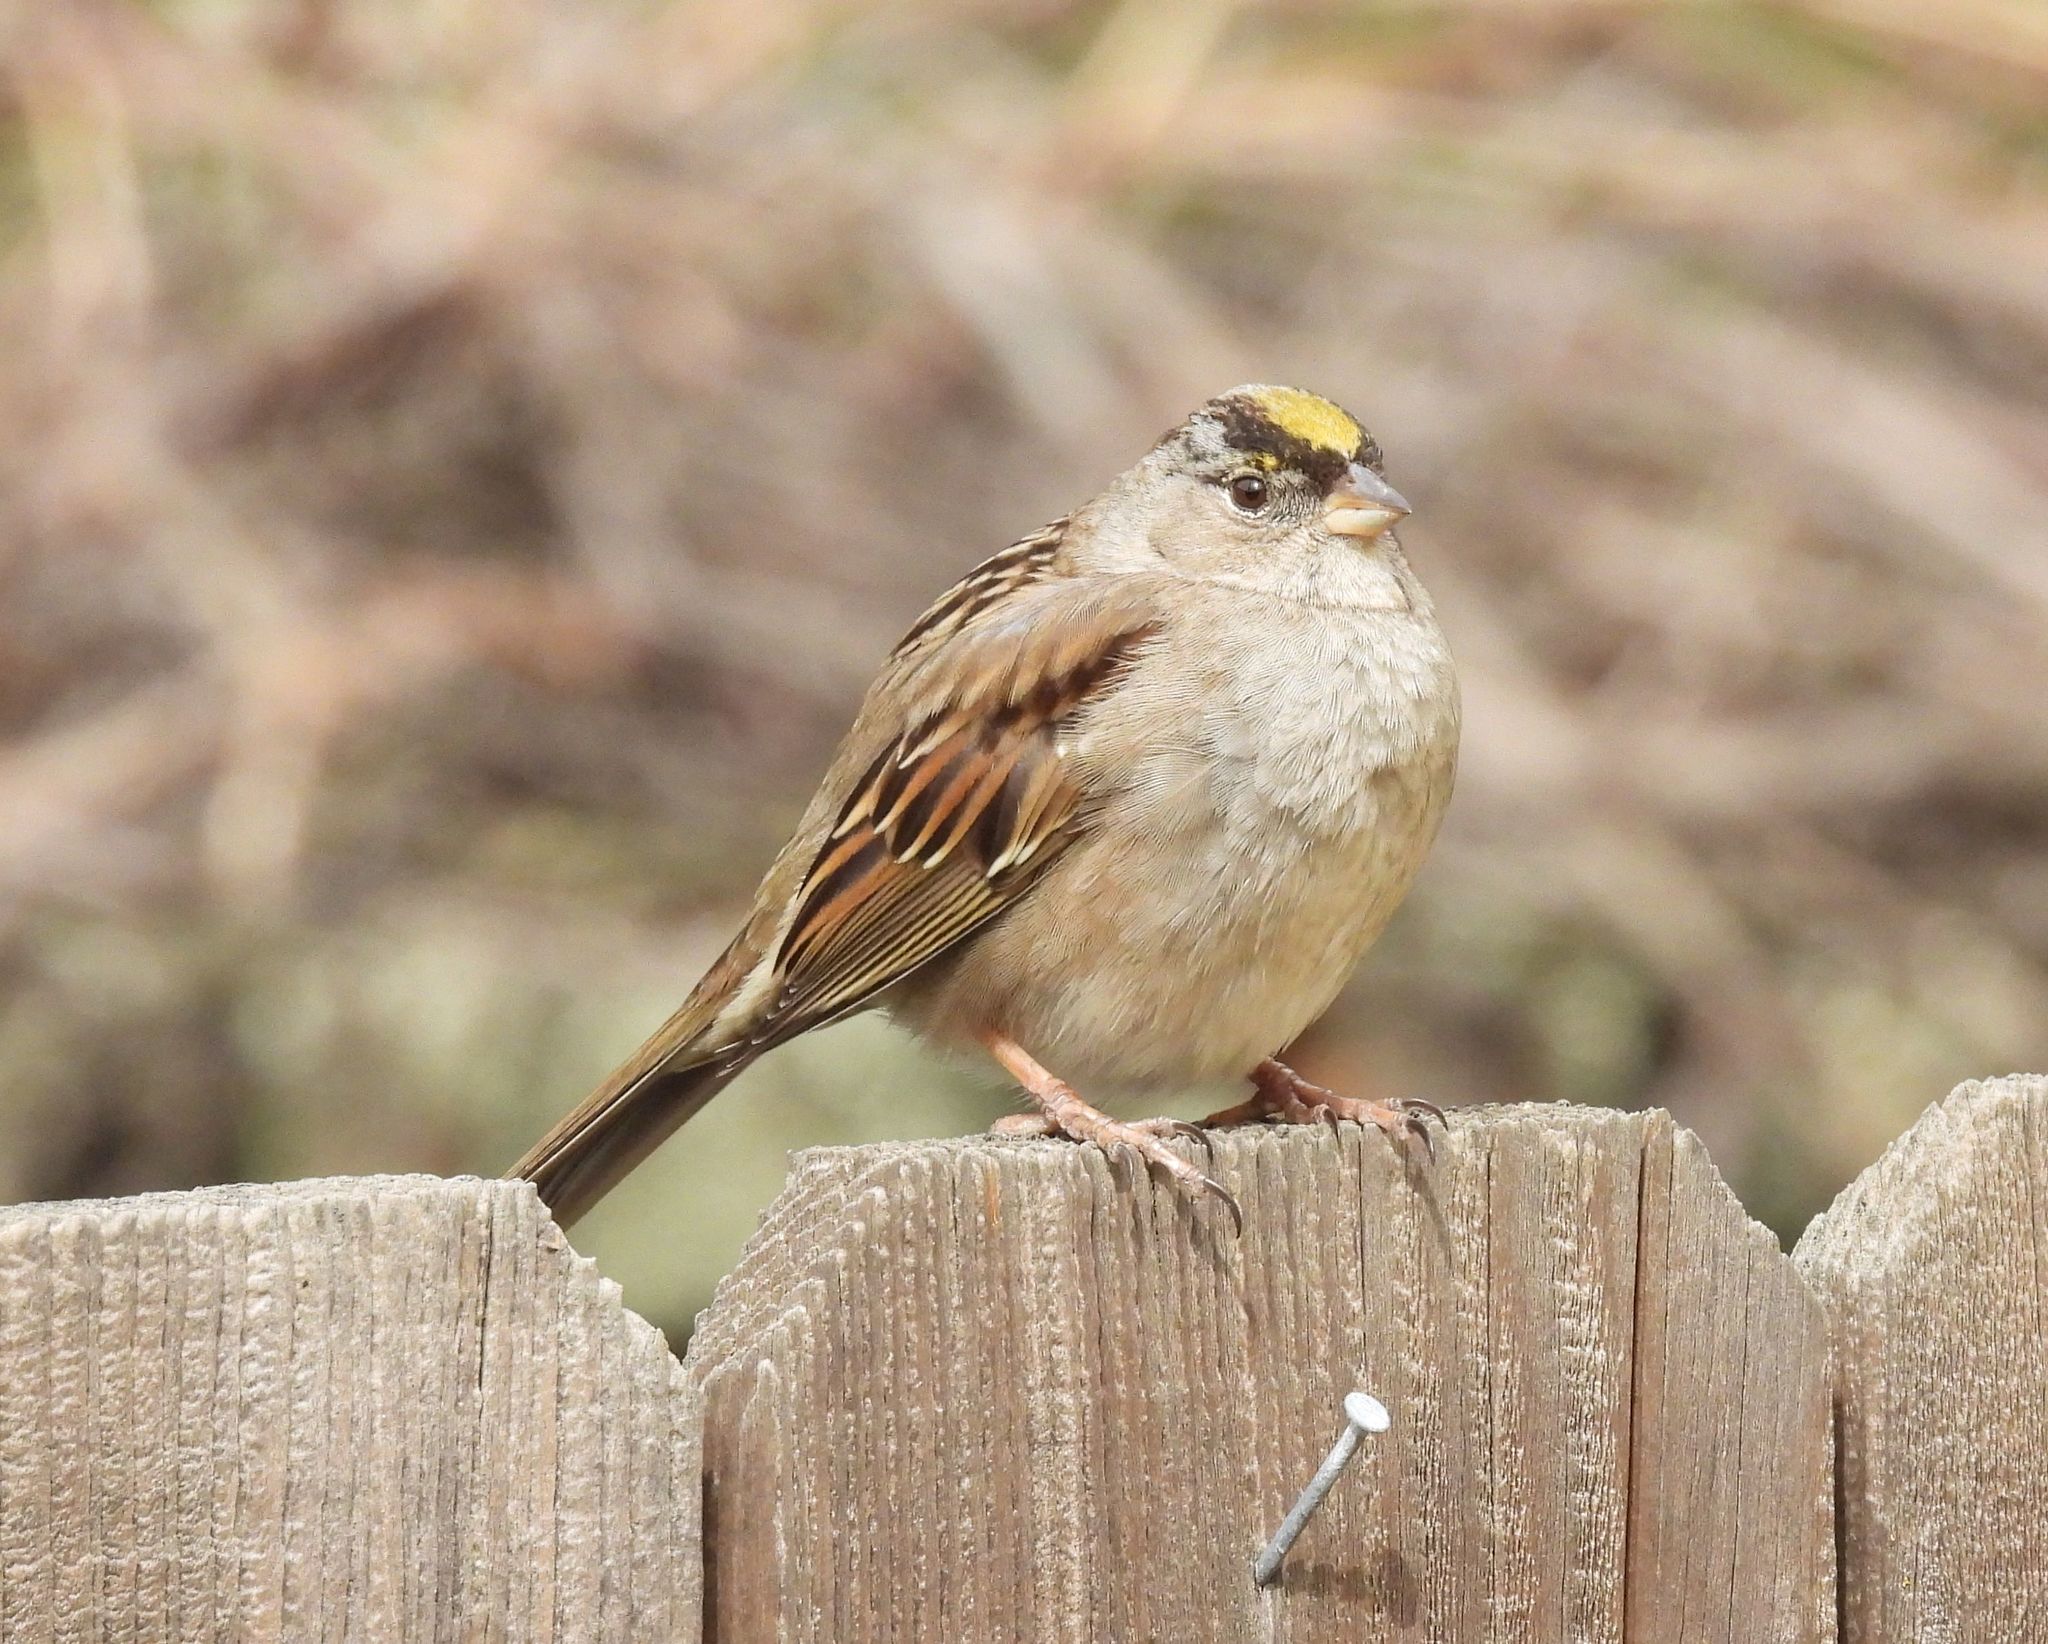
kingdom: Animalia
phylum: Chordata
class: Aves
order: Passeriformes
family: Passerellidae
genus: Zonotrichia
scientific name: Zonotrichia atricapilla
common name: Golden-crowned sparrow
